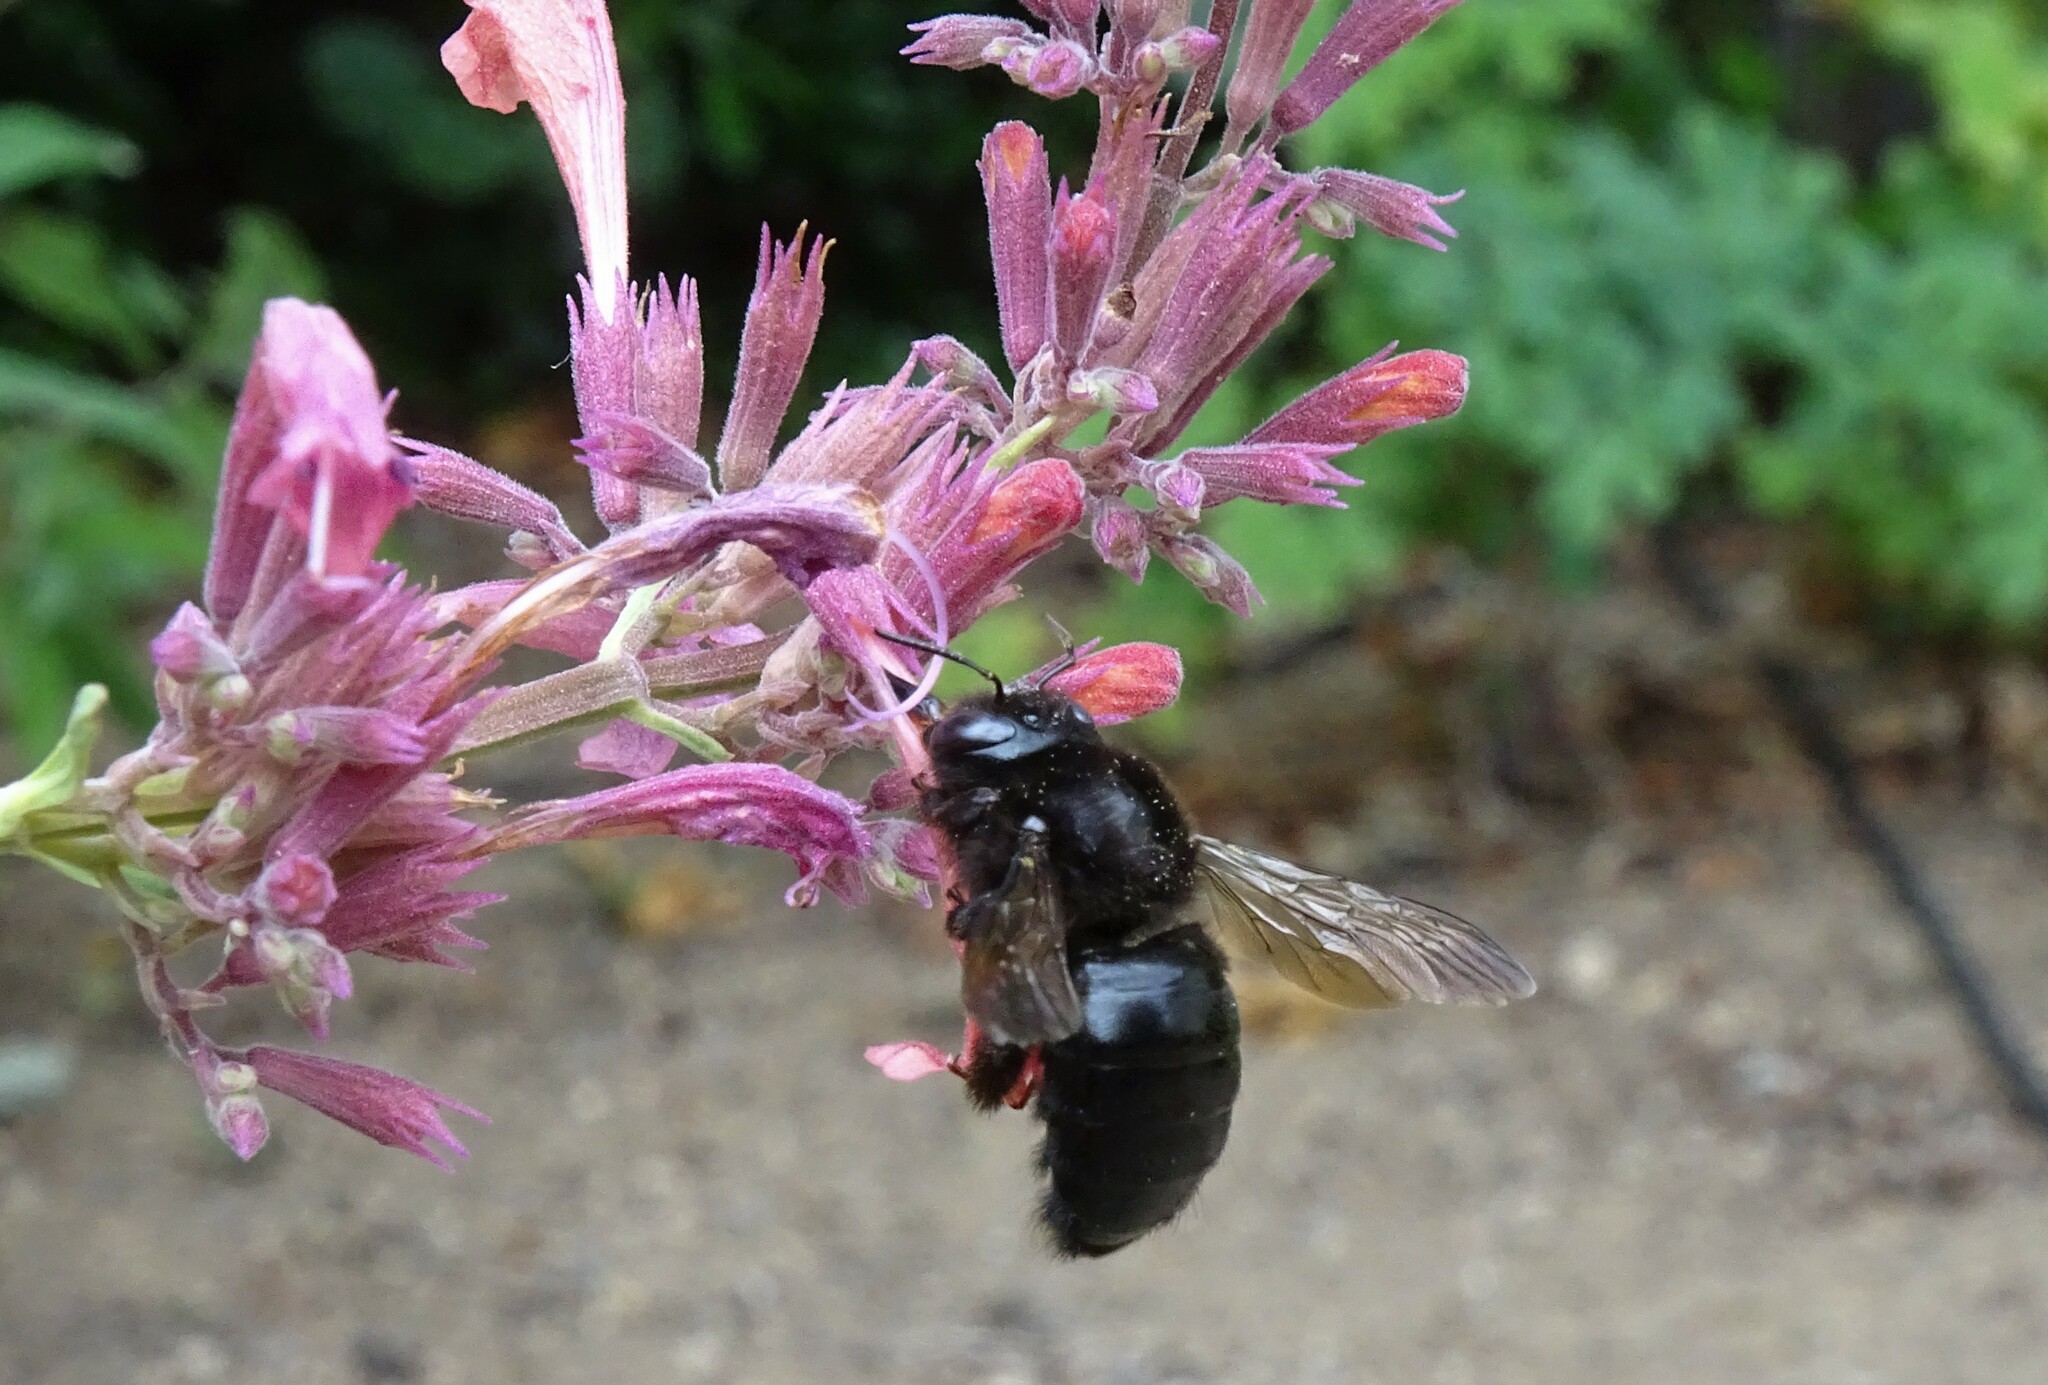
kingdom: Animalia
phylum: Arthropoda
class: Insecta
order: Hymenoptera
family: Apidae
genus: Xylocopa
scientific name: Xylocopa tabaniformis
